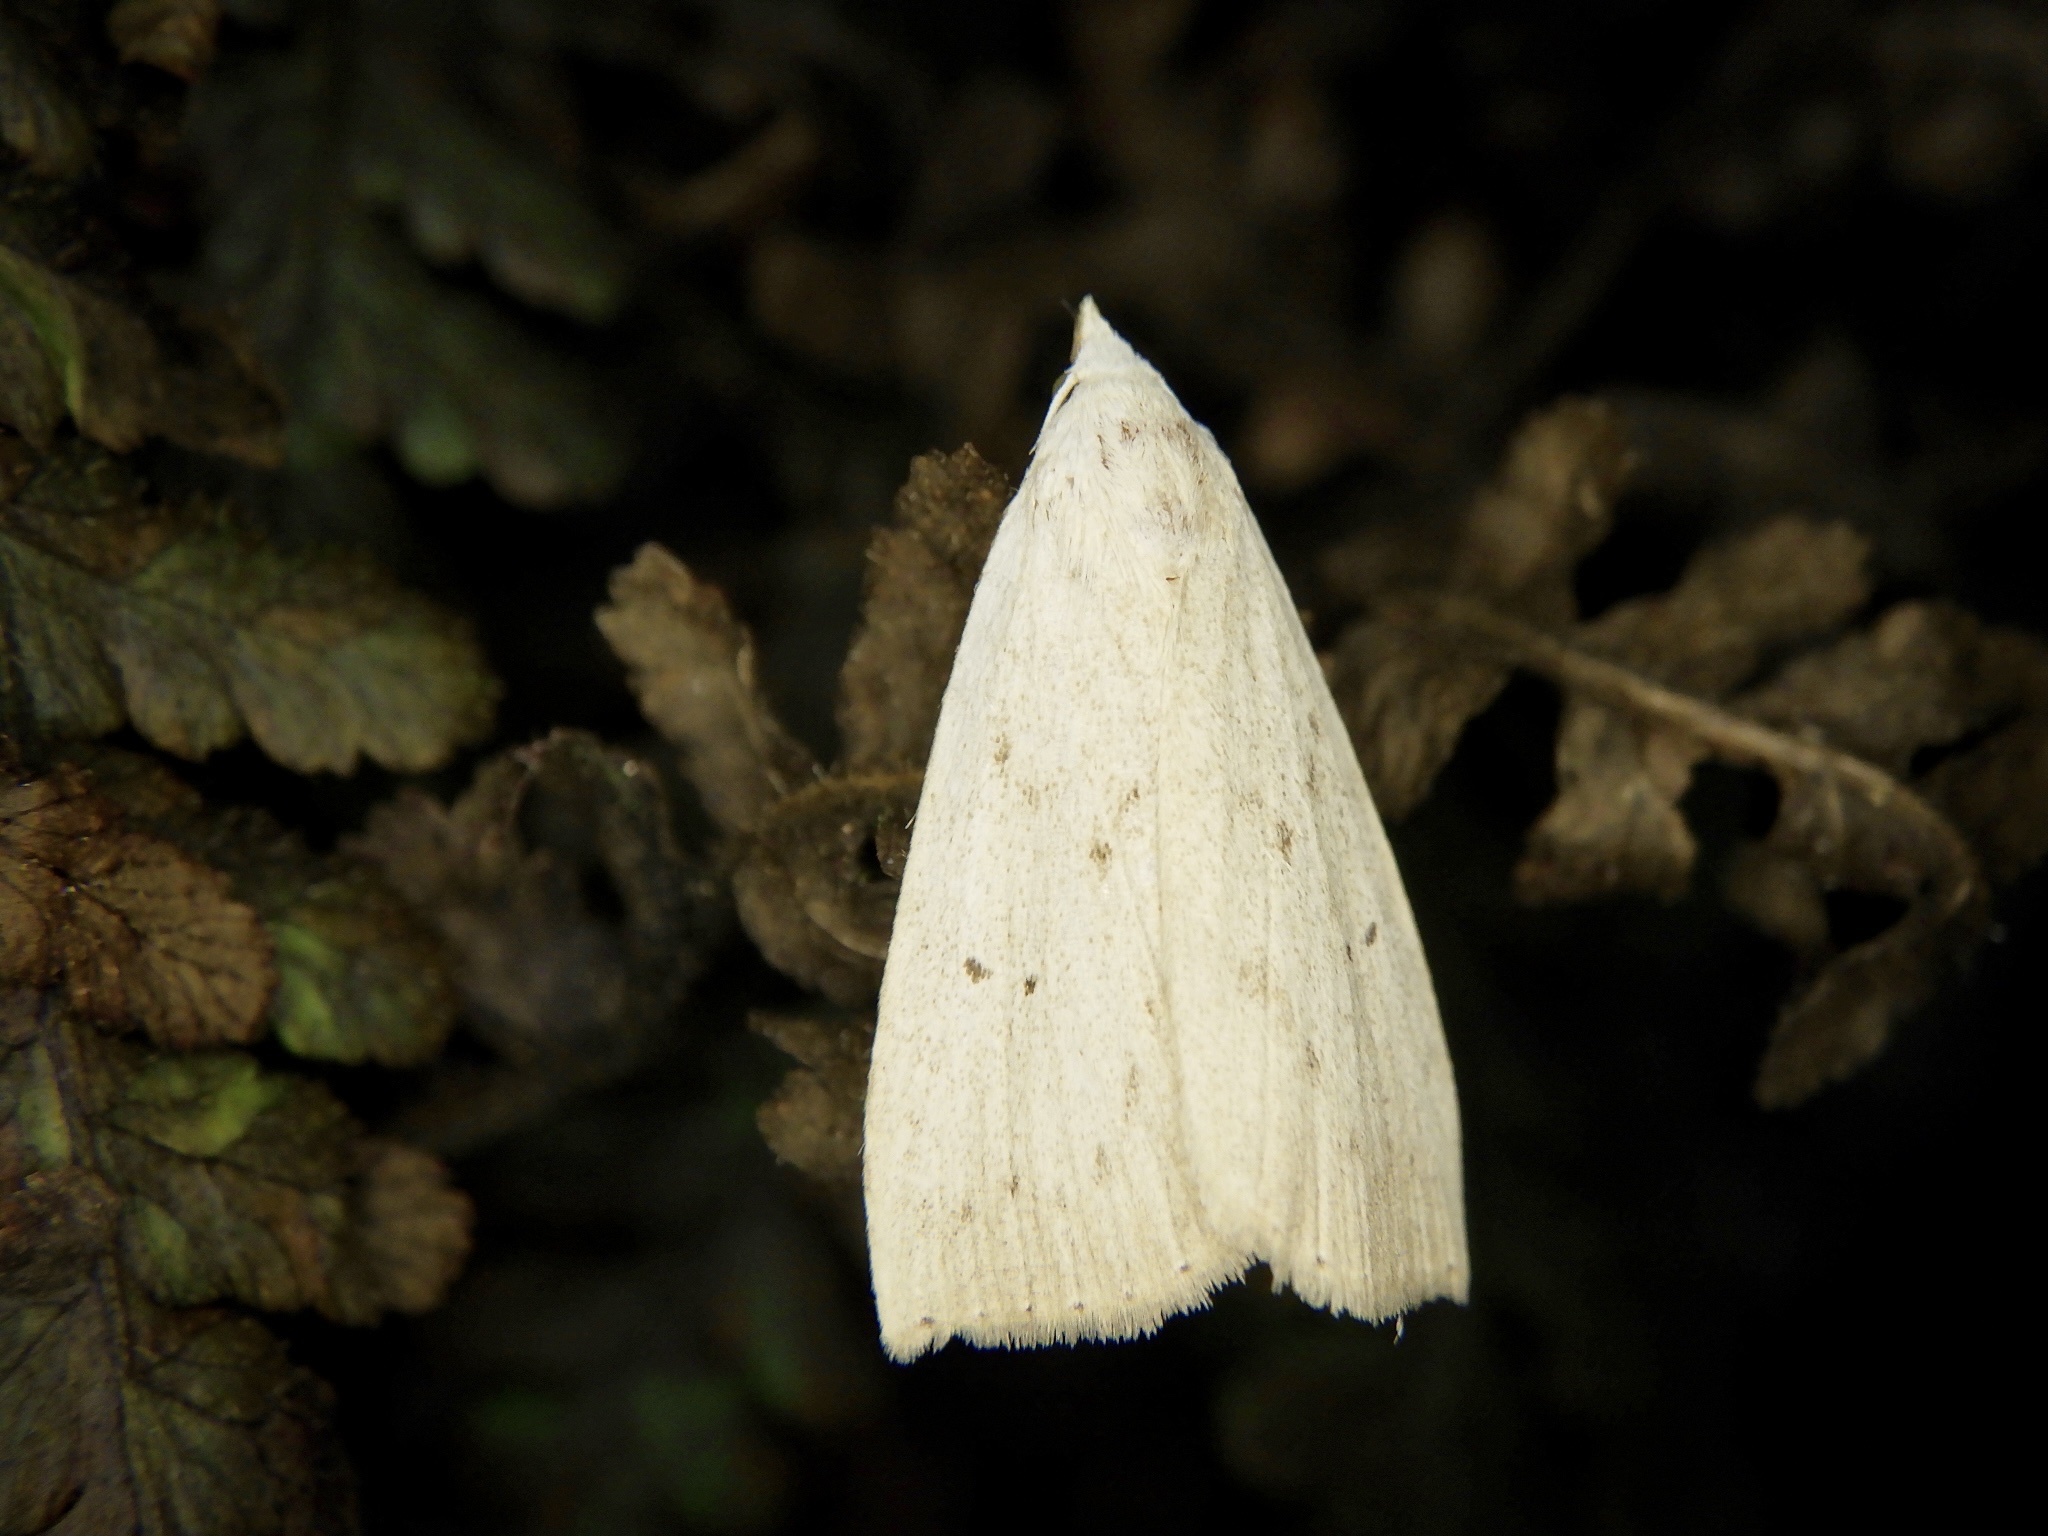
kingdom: Animalia
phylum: Arthropoda
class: Insecta
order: Lepidoptera
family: Erebidae
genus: Rivula
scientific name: Rivula aequalis
